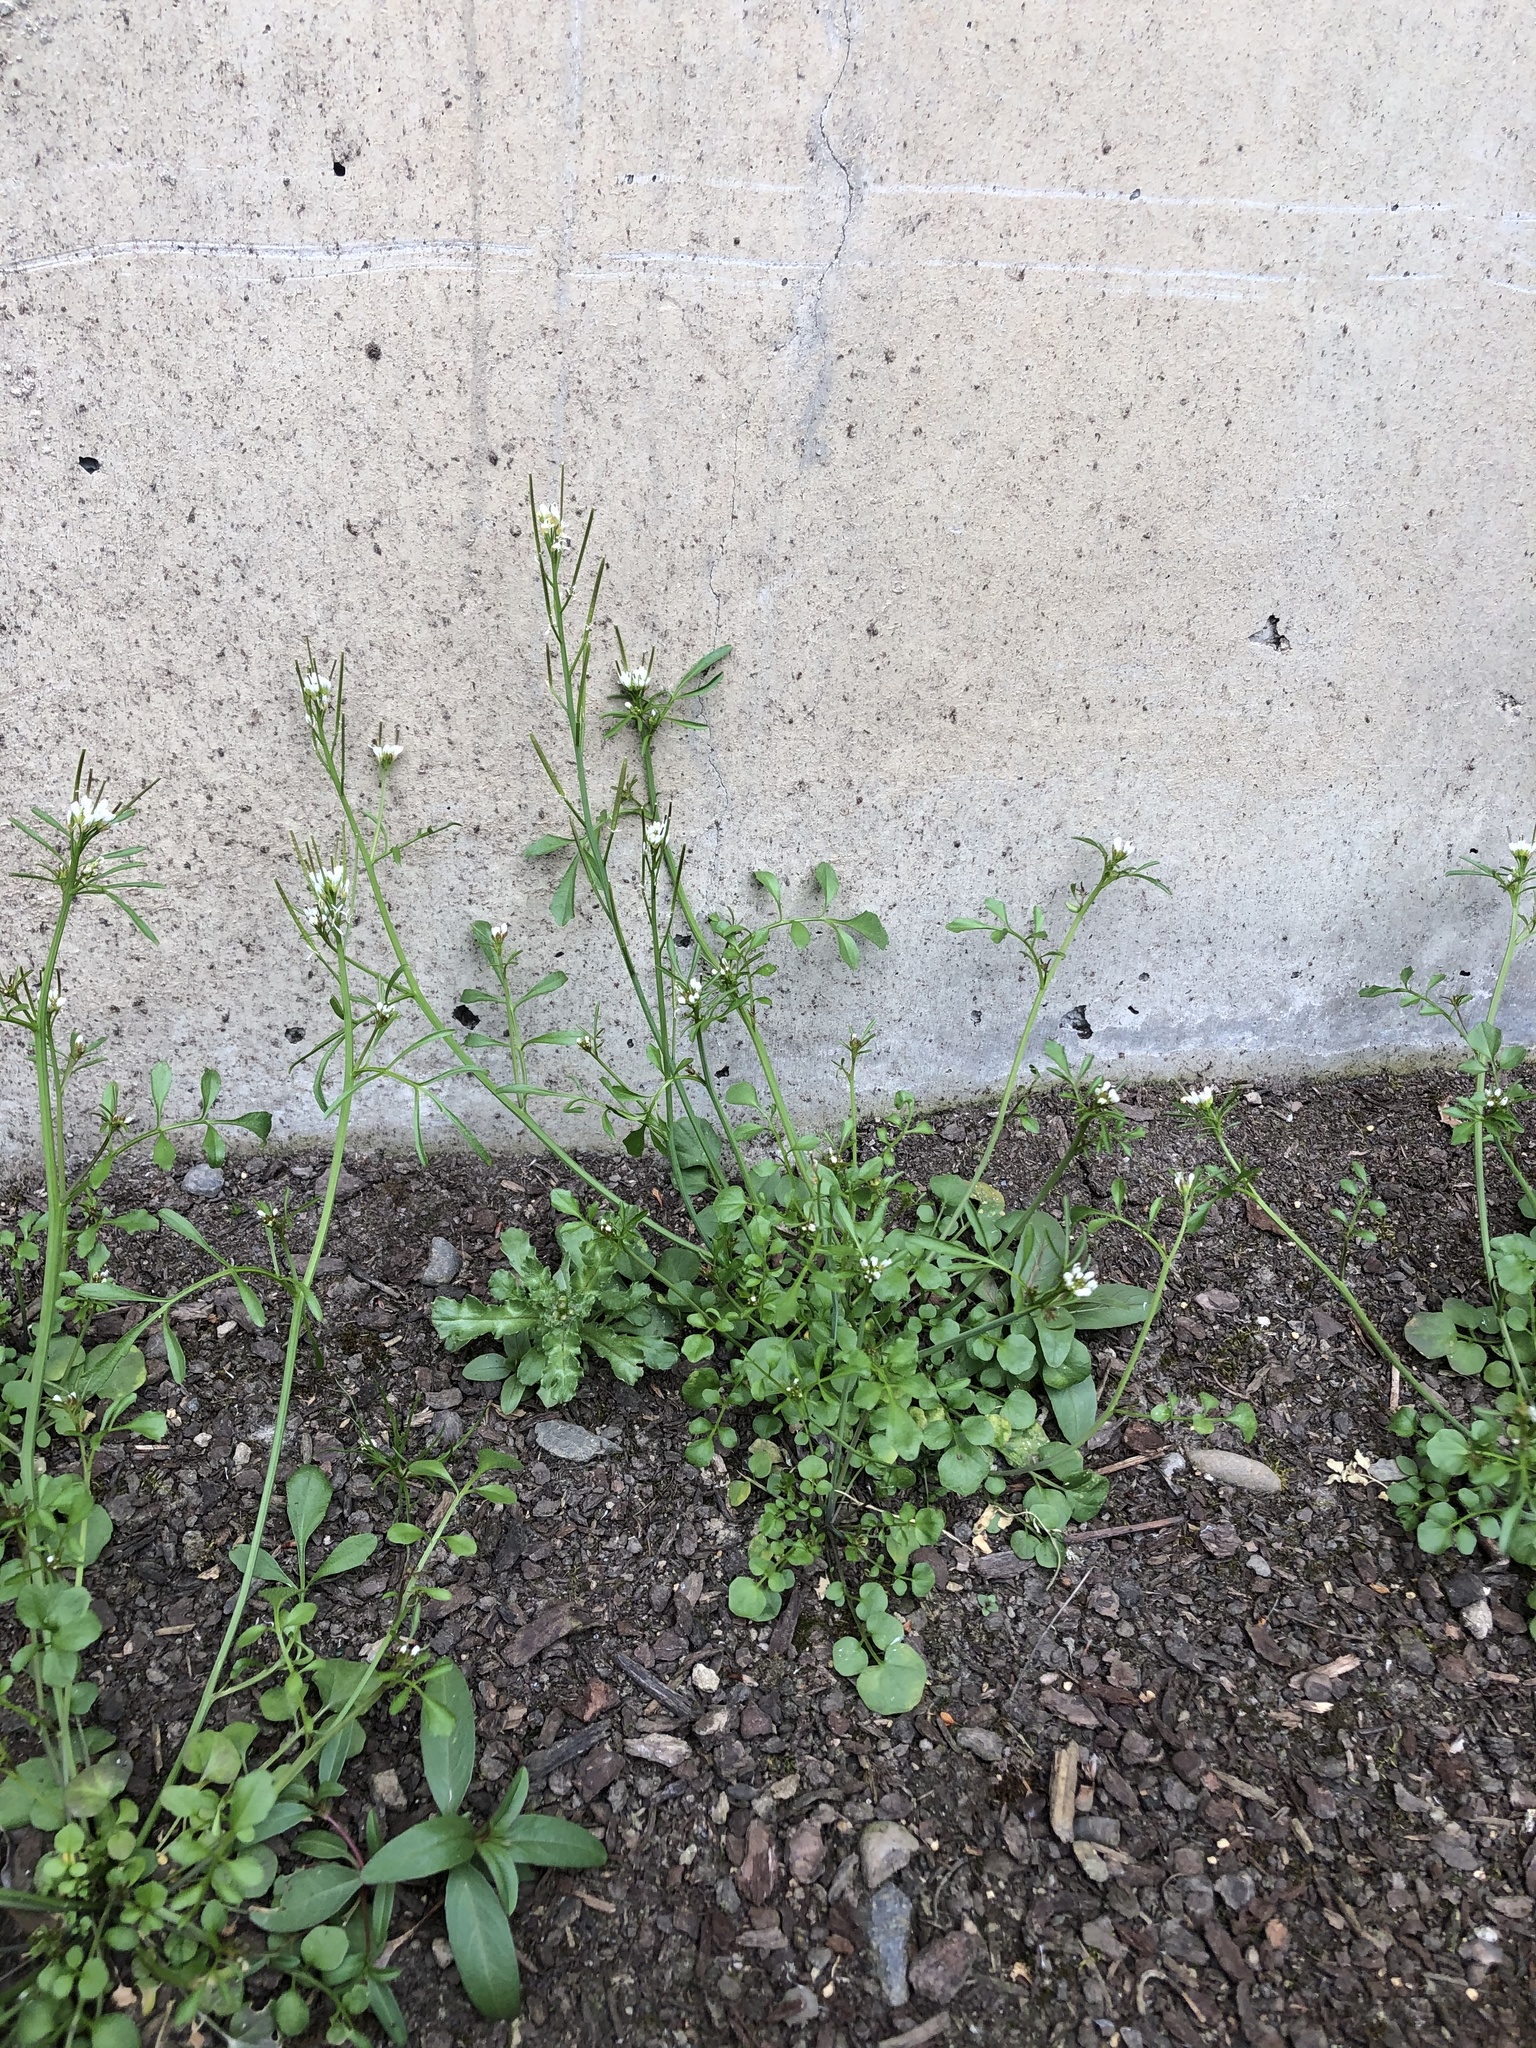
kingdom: Plantae
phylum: Tracheophyta
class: Magnoliopsida
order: Brassicales
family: Brassicaceae
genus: Cardamine
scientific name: Cardamine hirsuta
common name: Hairy bittercress
